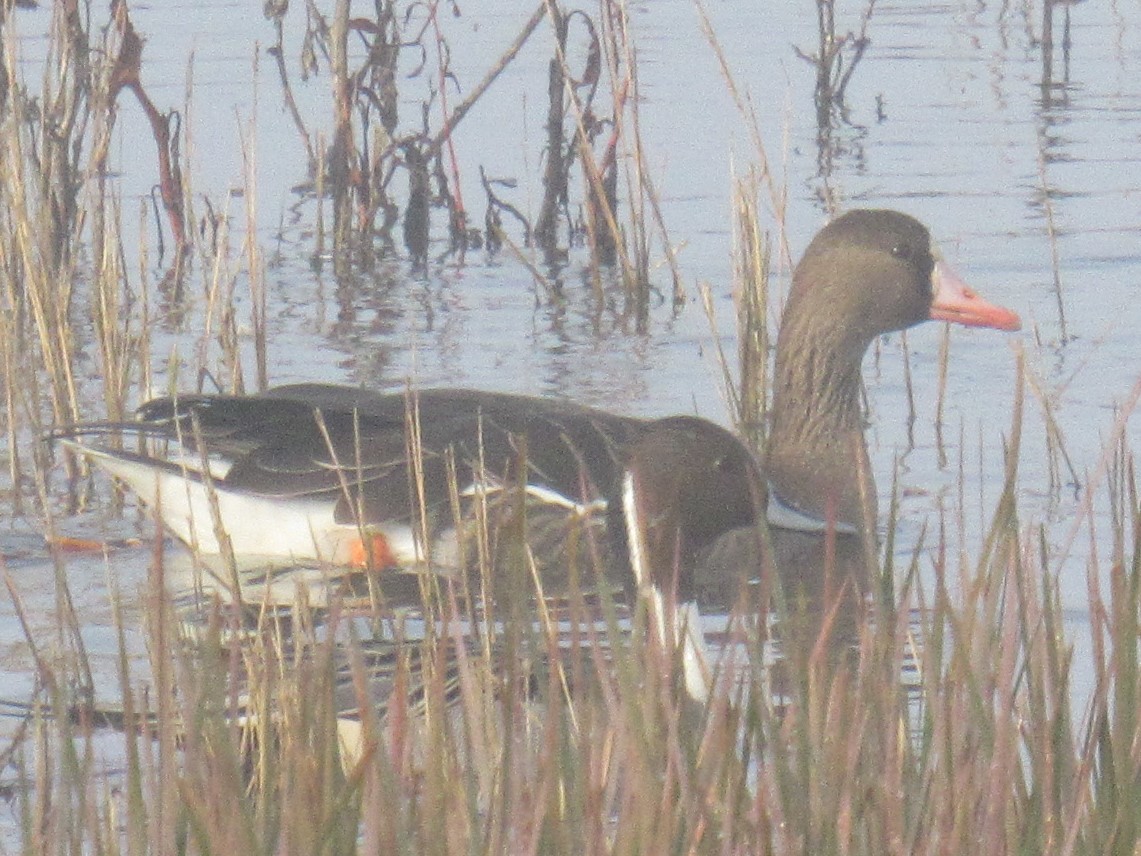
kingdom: Animalia
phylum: Chordata
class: Aves
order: Anseriformes
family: Anatidae
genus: Anser
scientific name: Anser albifrons
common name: Greater white-fronted goose
